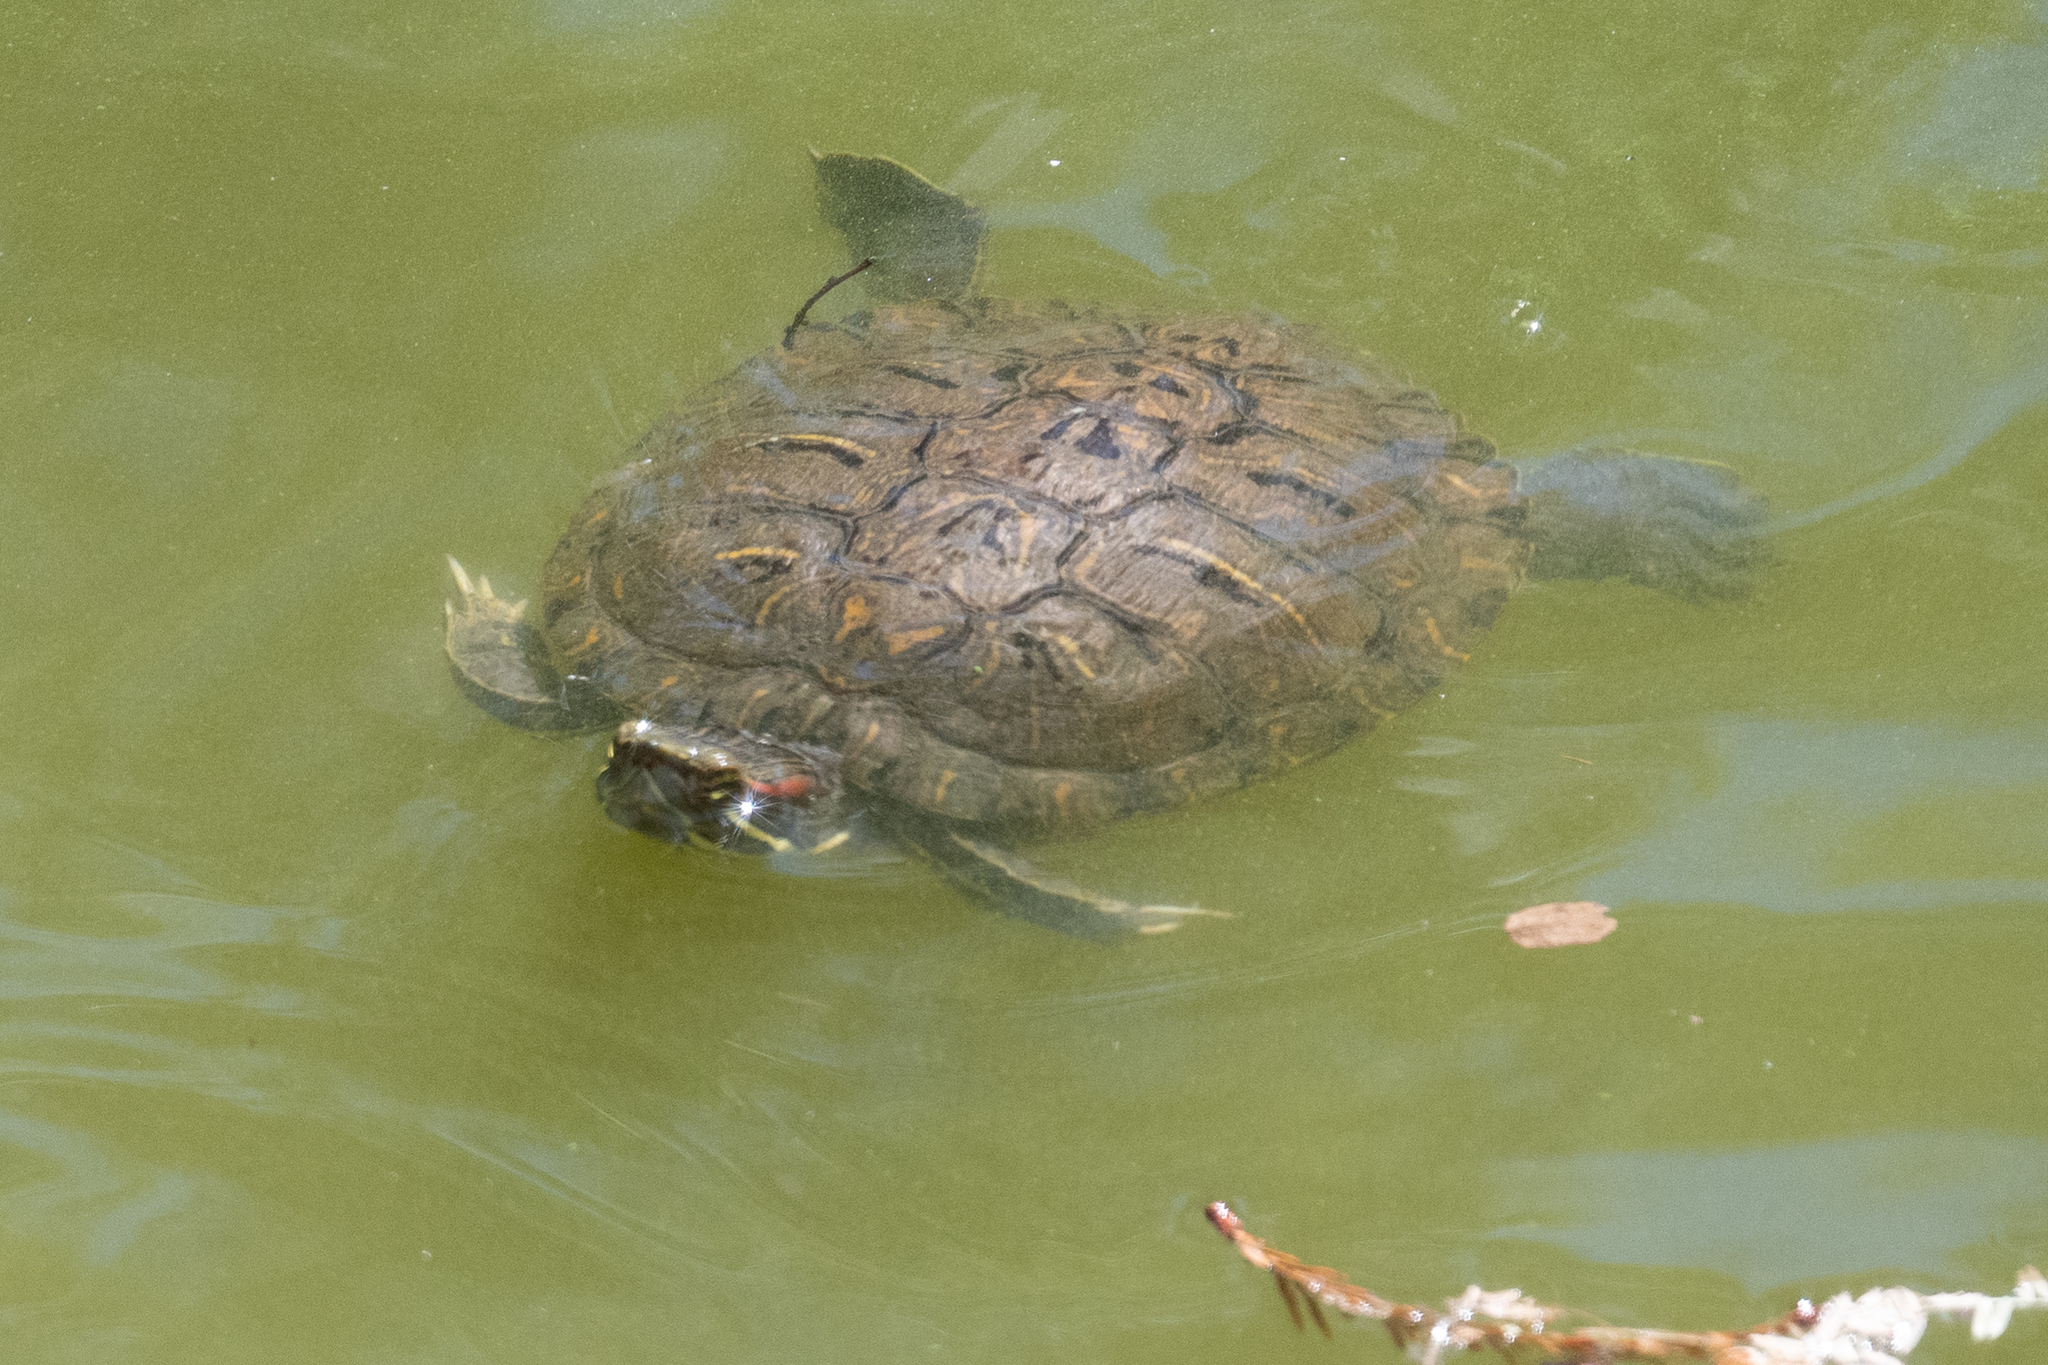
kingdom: Animalia
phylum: Chordata
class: Testudines
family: Emydidae
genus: Trachemys
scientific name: Trachemys scripta
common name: Slider
